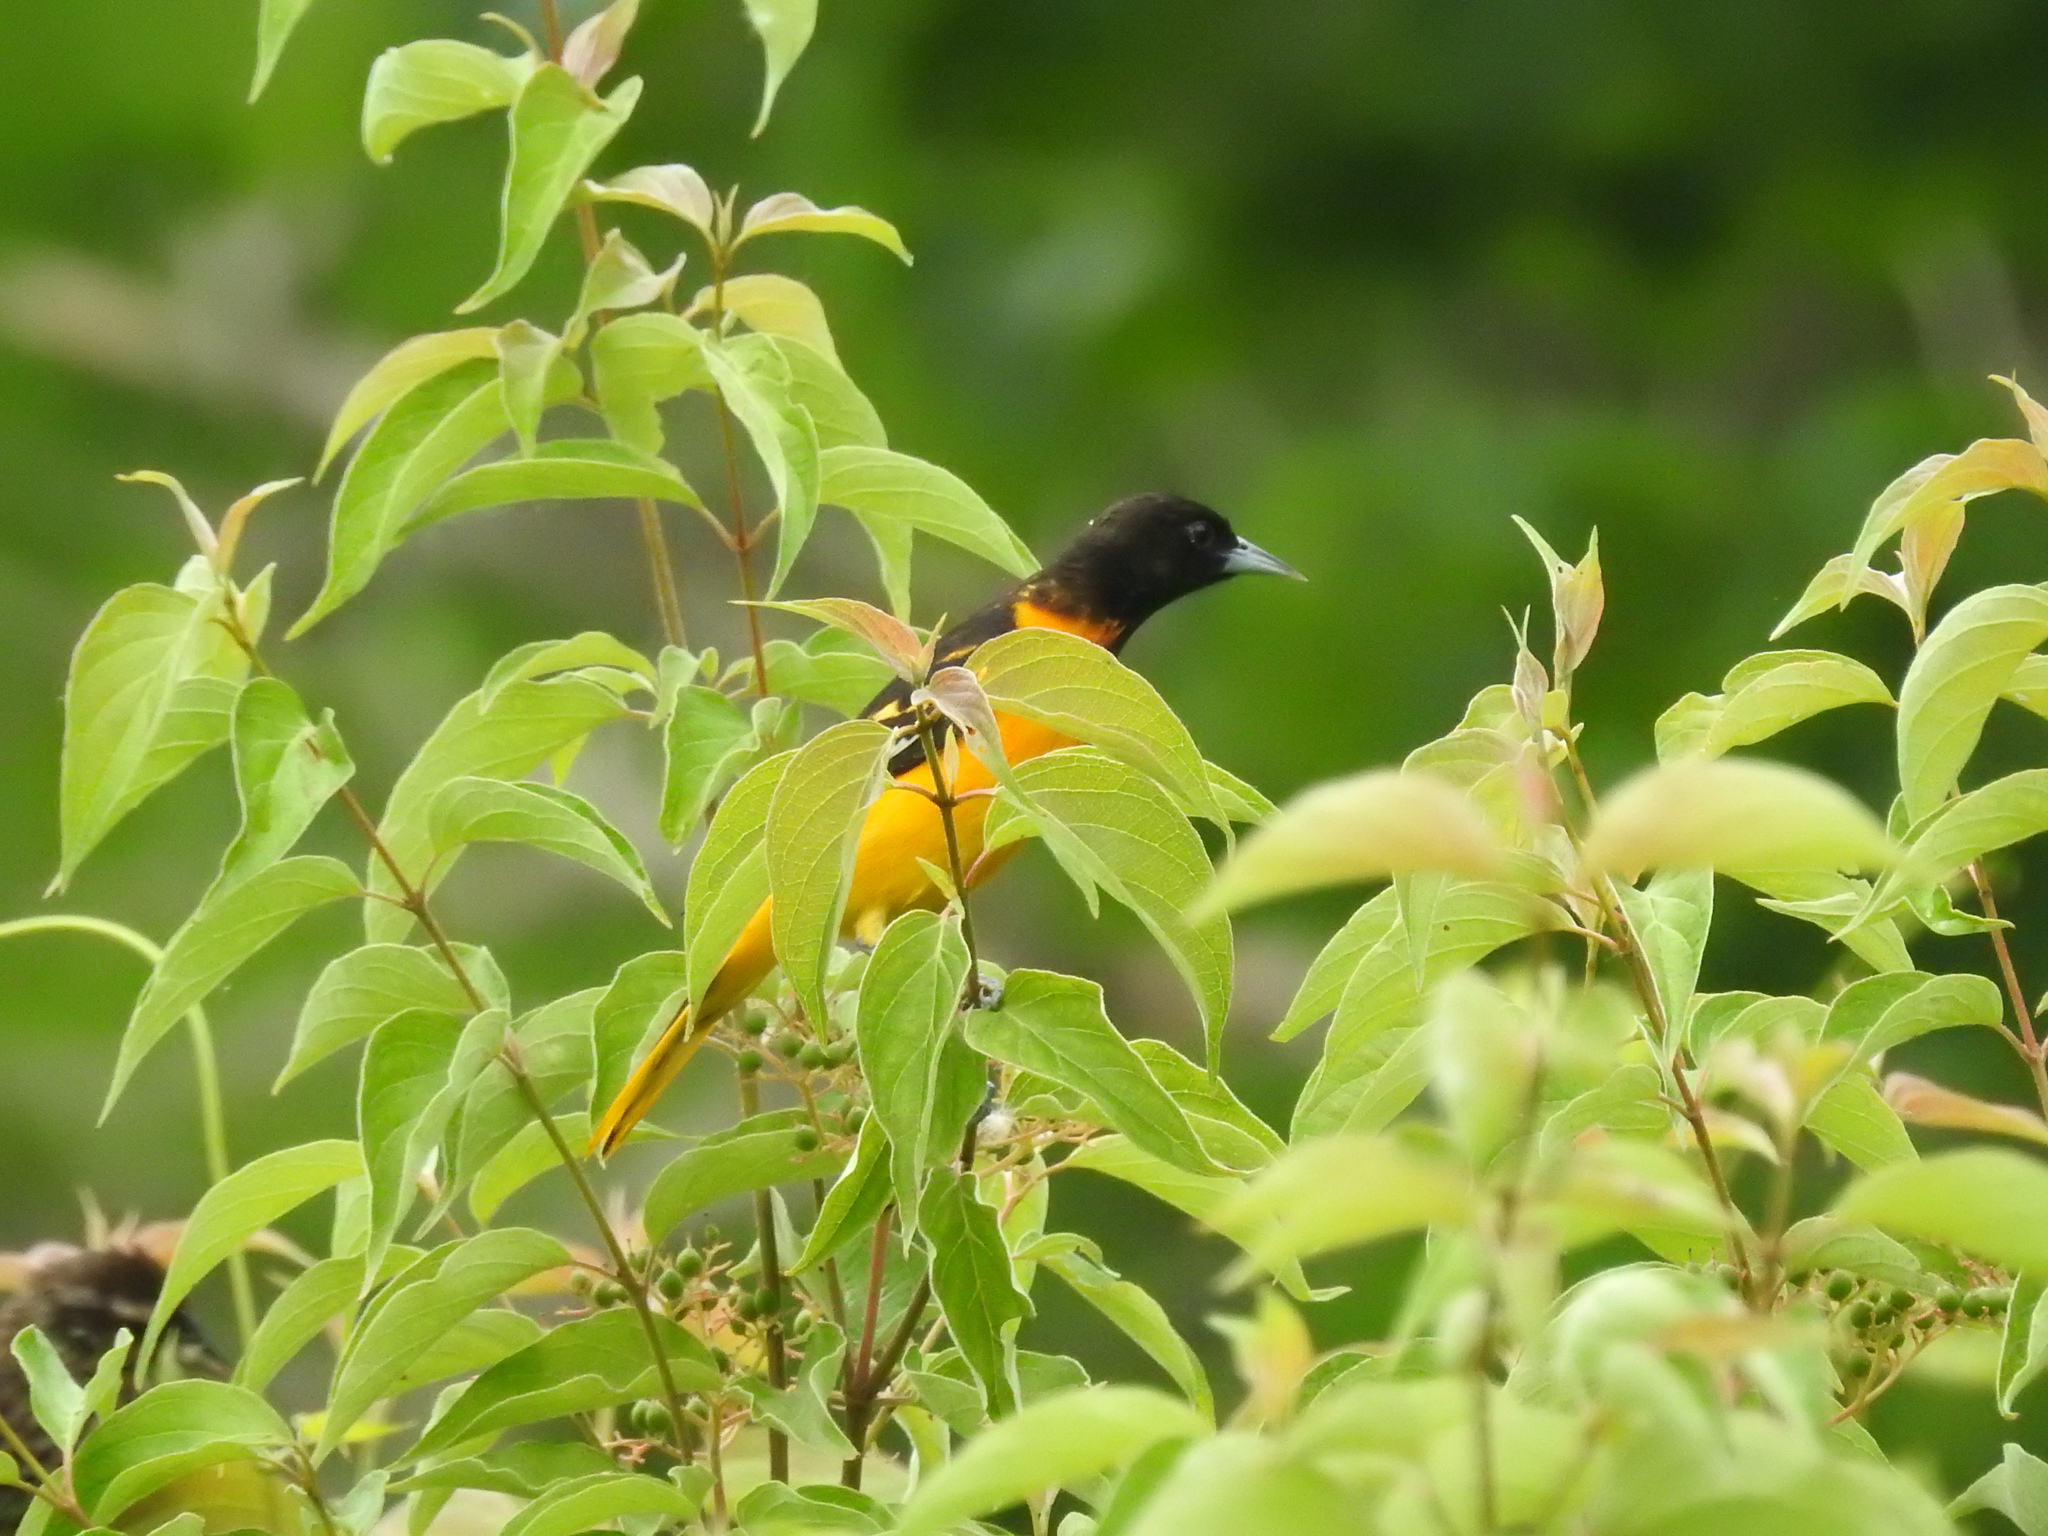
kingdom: Animalia
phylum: Chordata
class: Aves
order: Passeriformes
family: Icteridae
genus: Icterus
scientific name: Icterus galbula
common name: Baltimore oriole
